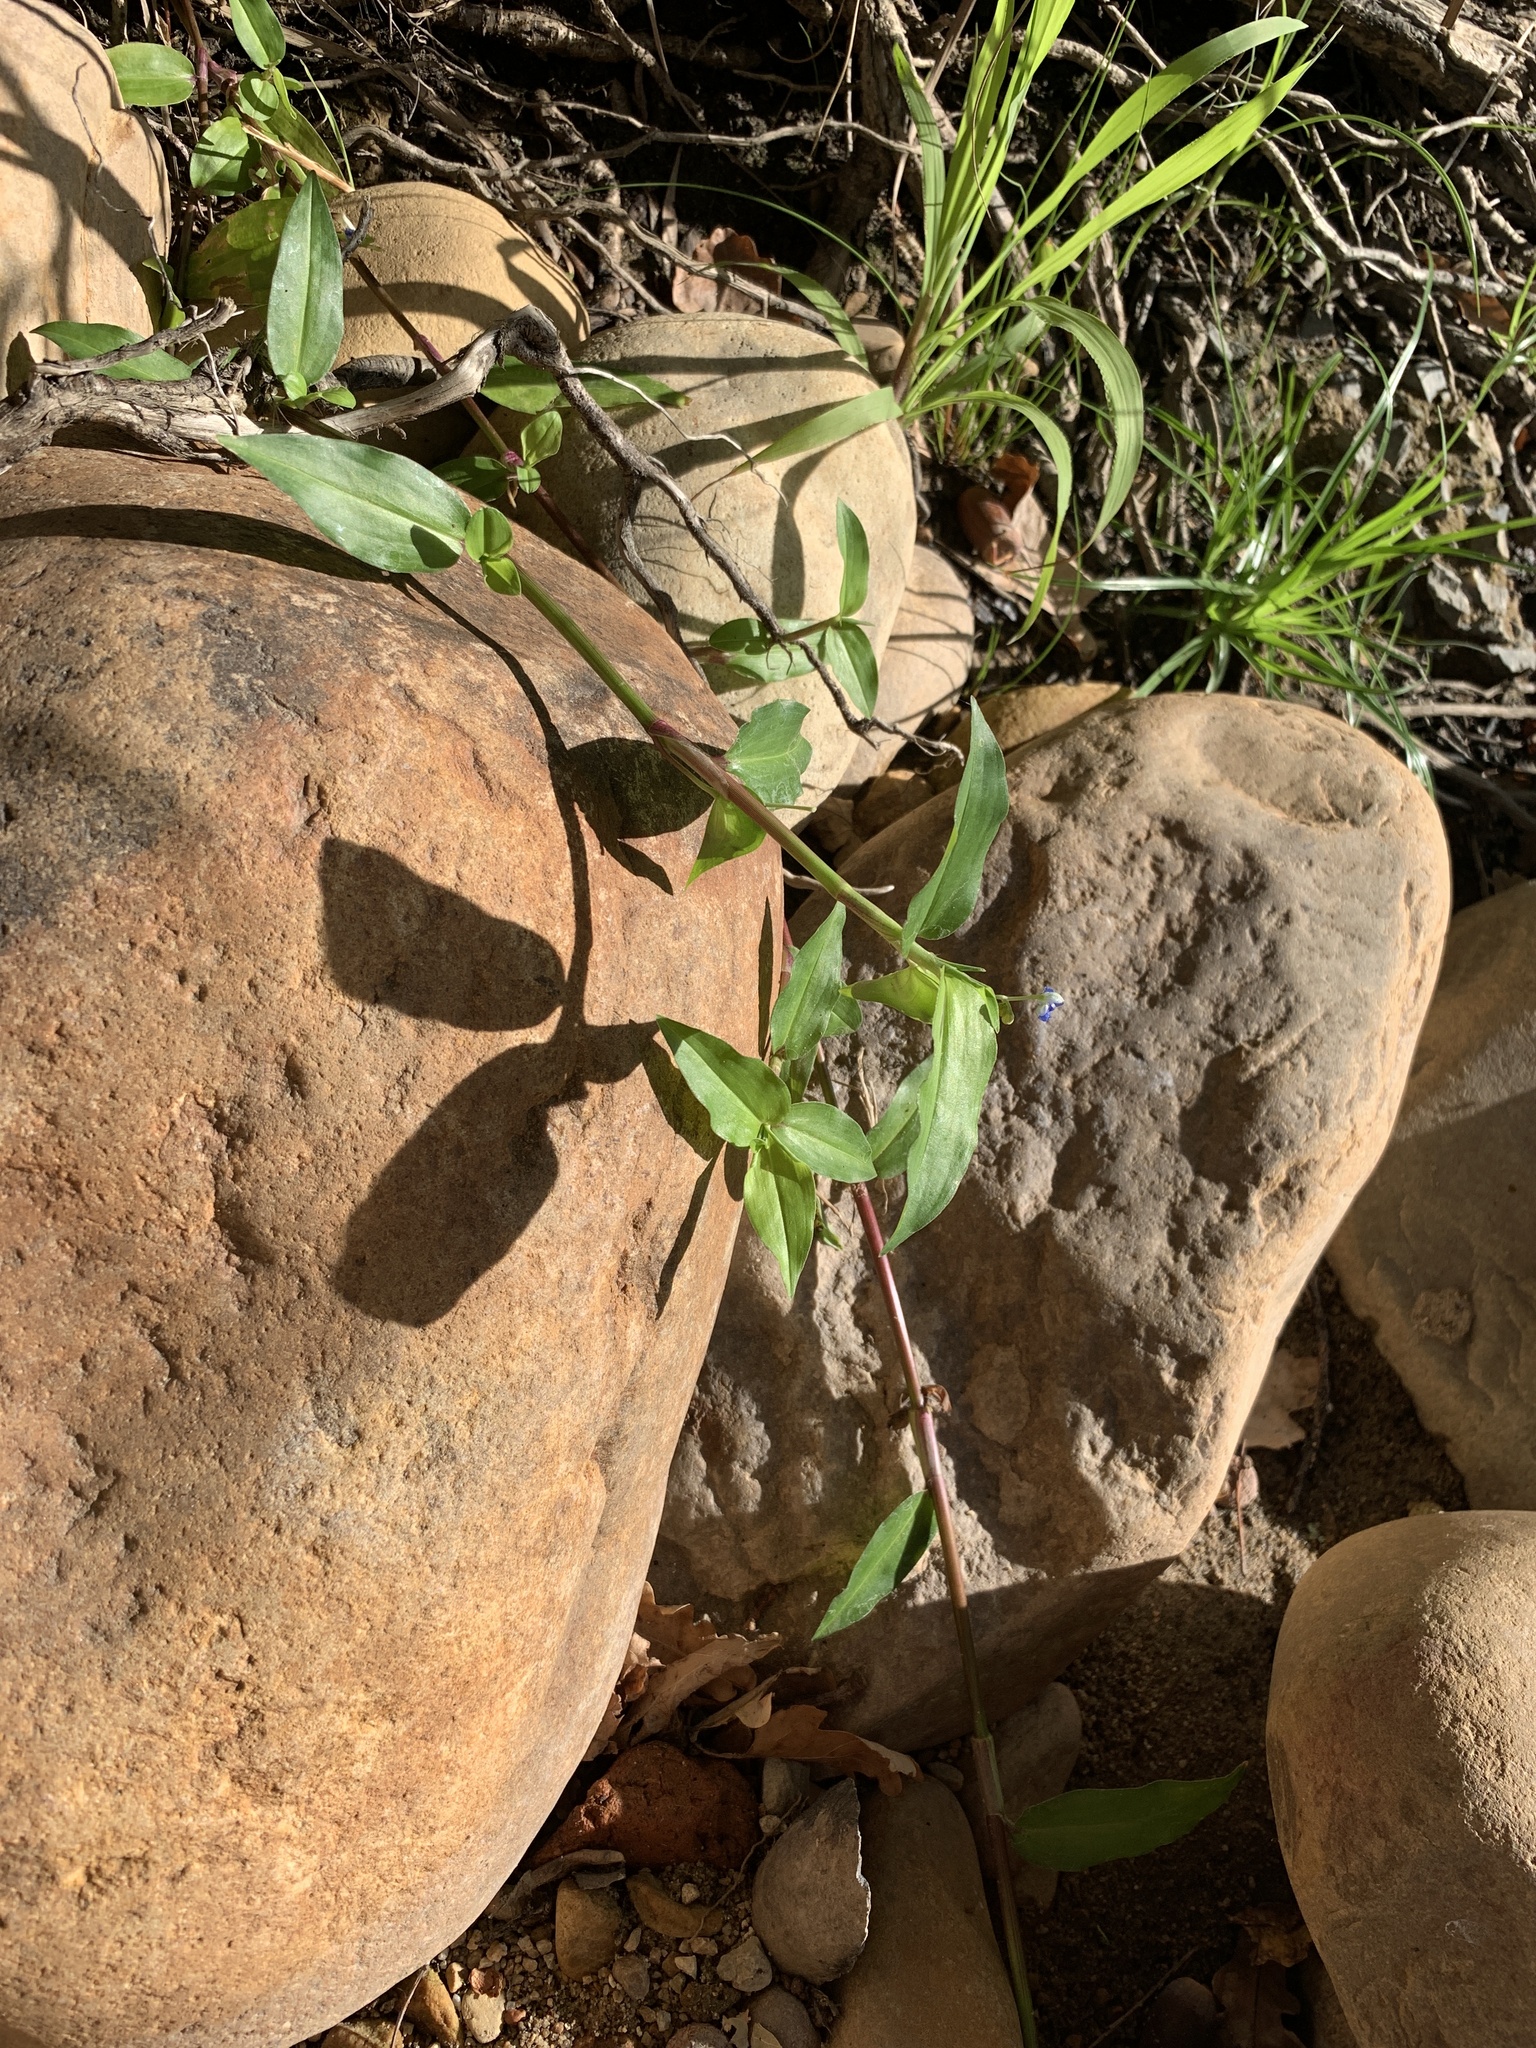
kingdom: Plantae
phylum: Tracheophyta
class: Liliopsida
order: Commelinales
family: Commelinaceae
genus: Commelina
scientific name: Commelina diffusa
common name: Climbing dayflower
